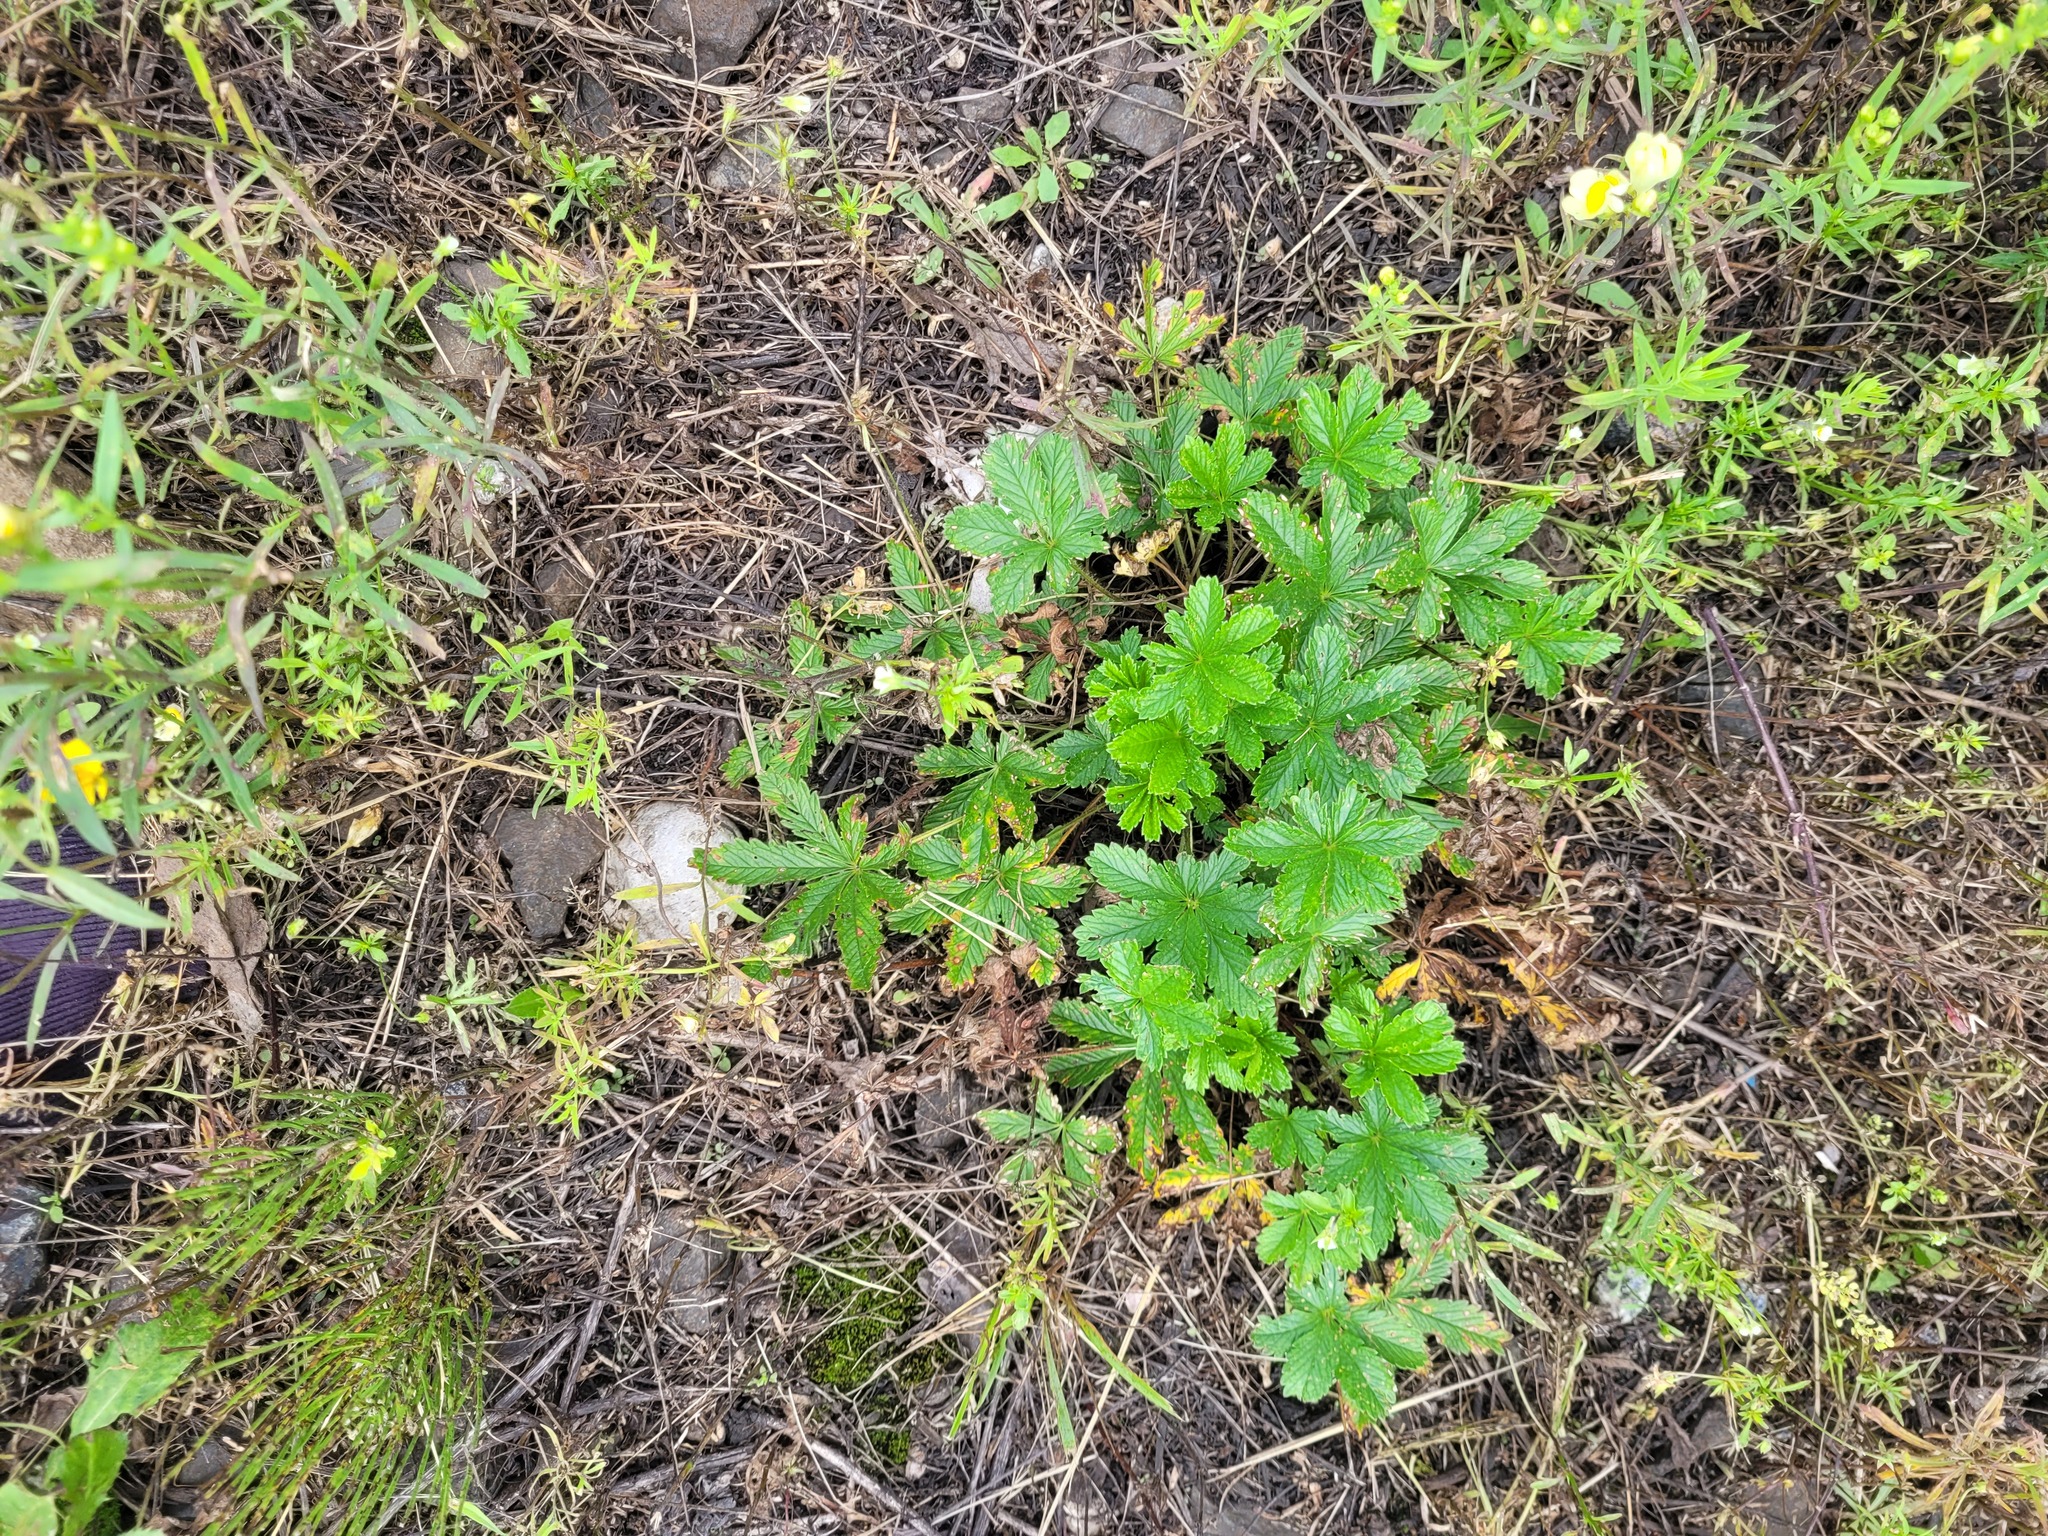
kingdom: Plantae
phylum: Tracheophyta
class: Magnoliopsida
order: Rosales
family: Rosaceae
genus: Potentilla
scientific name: Potentilla thuringiaca
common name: European cinquefoil
